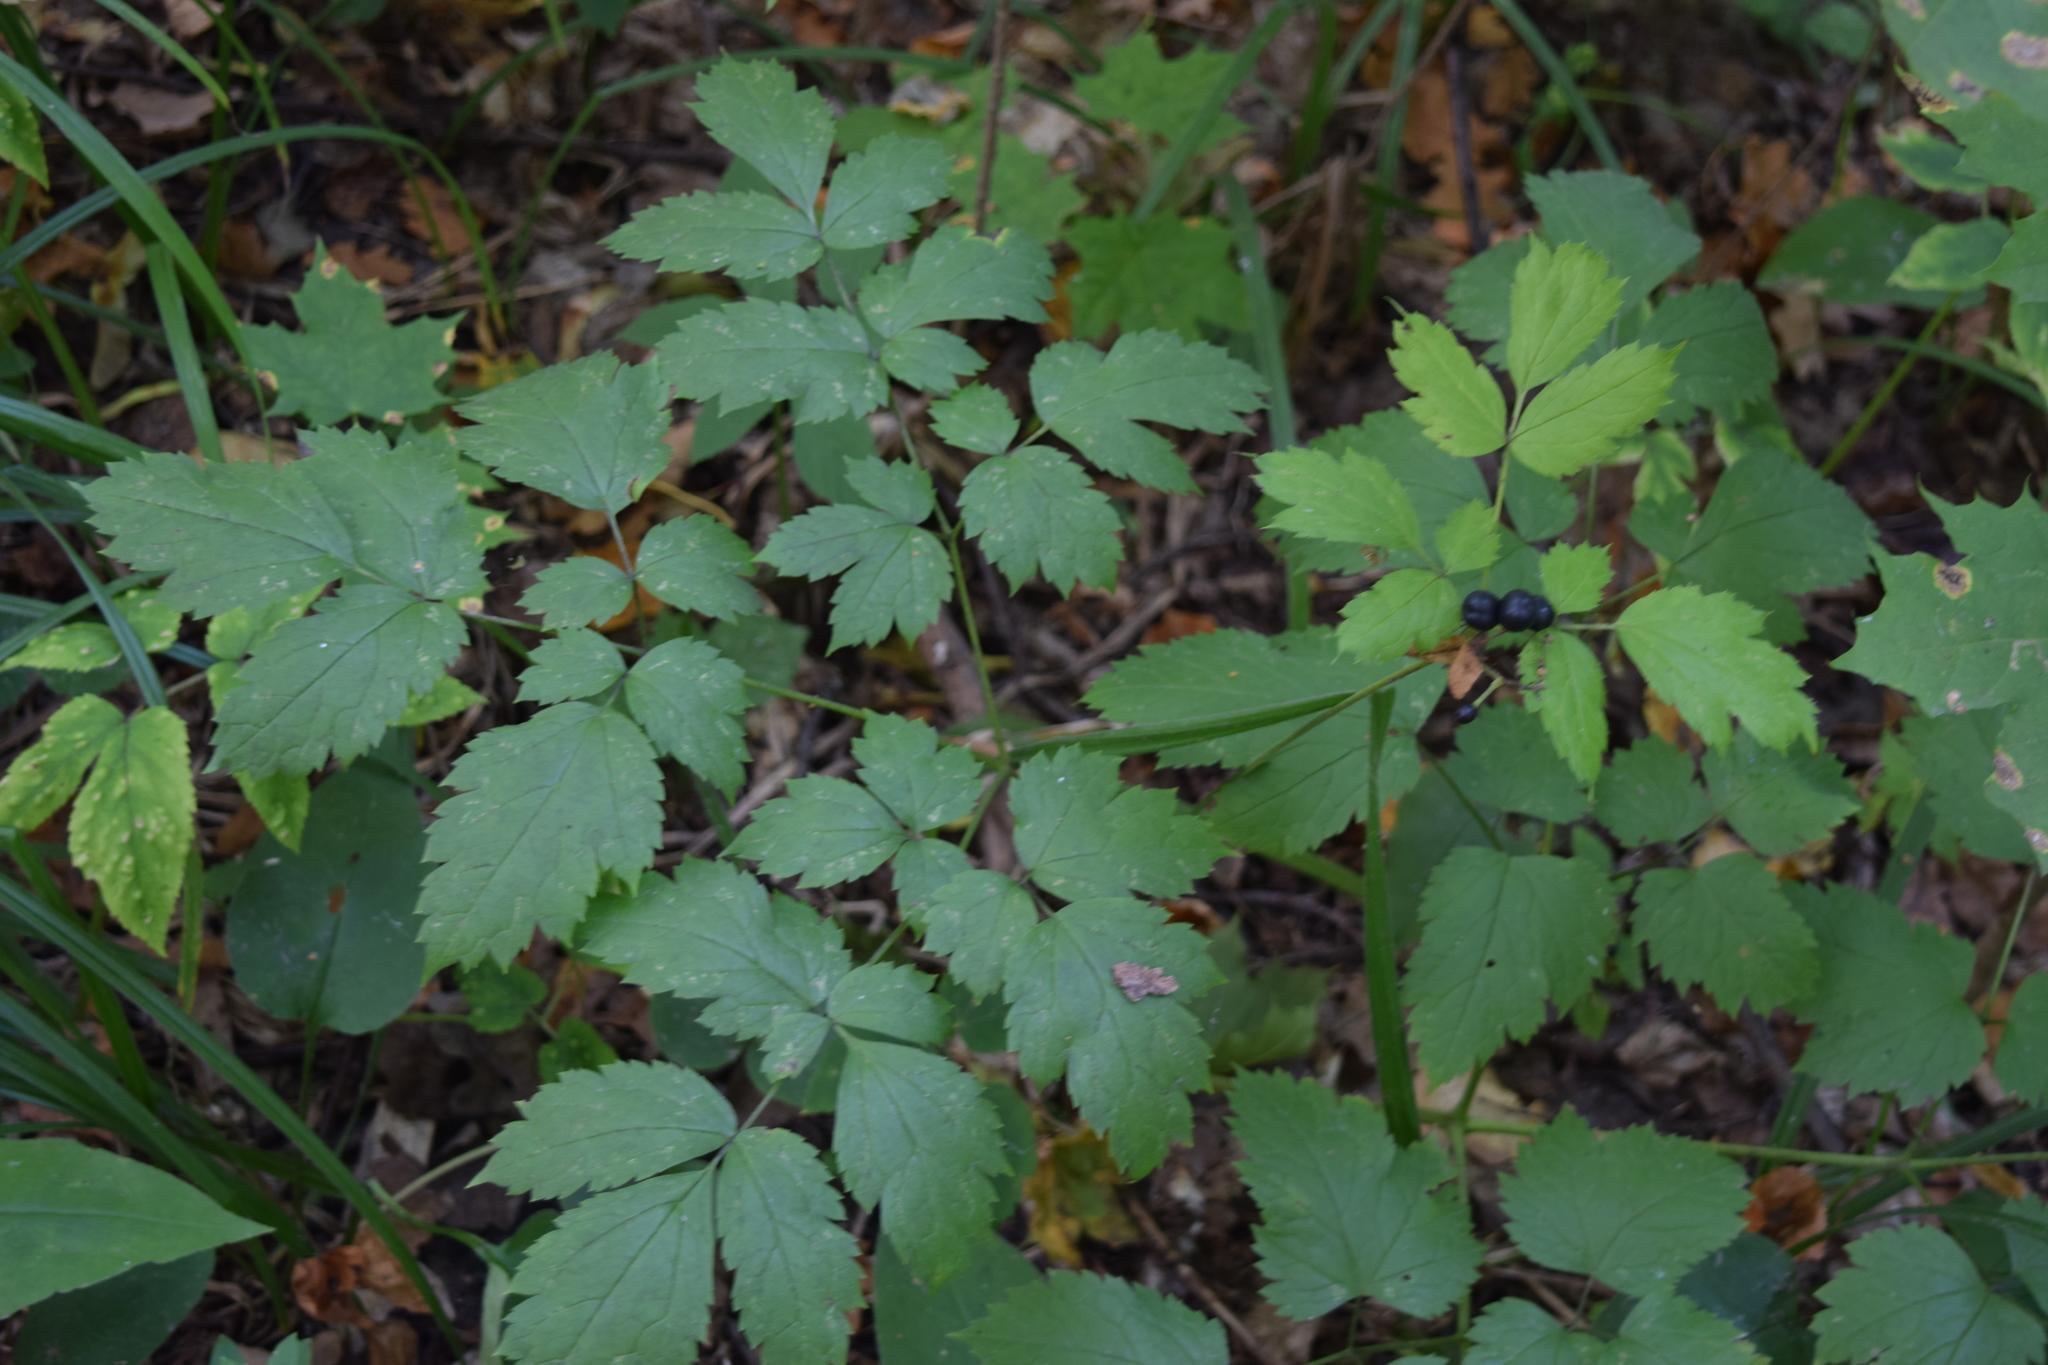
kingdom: Plantae
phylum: Tracheophyta
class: Magnoliopsida
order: Ranunculales
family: Ranunculaceae
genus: Actaea
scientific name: Actaea spicata
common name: Baneberry
